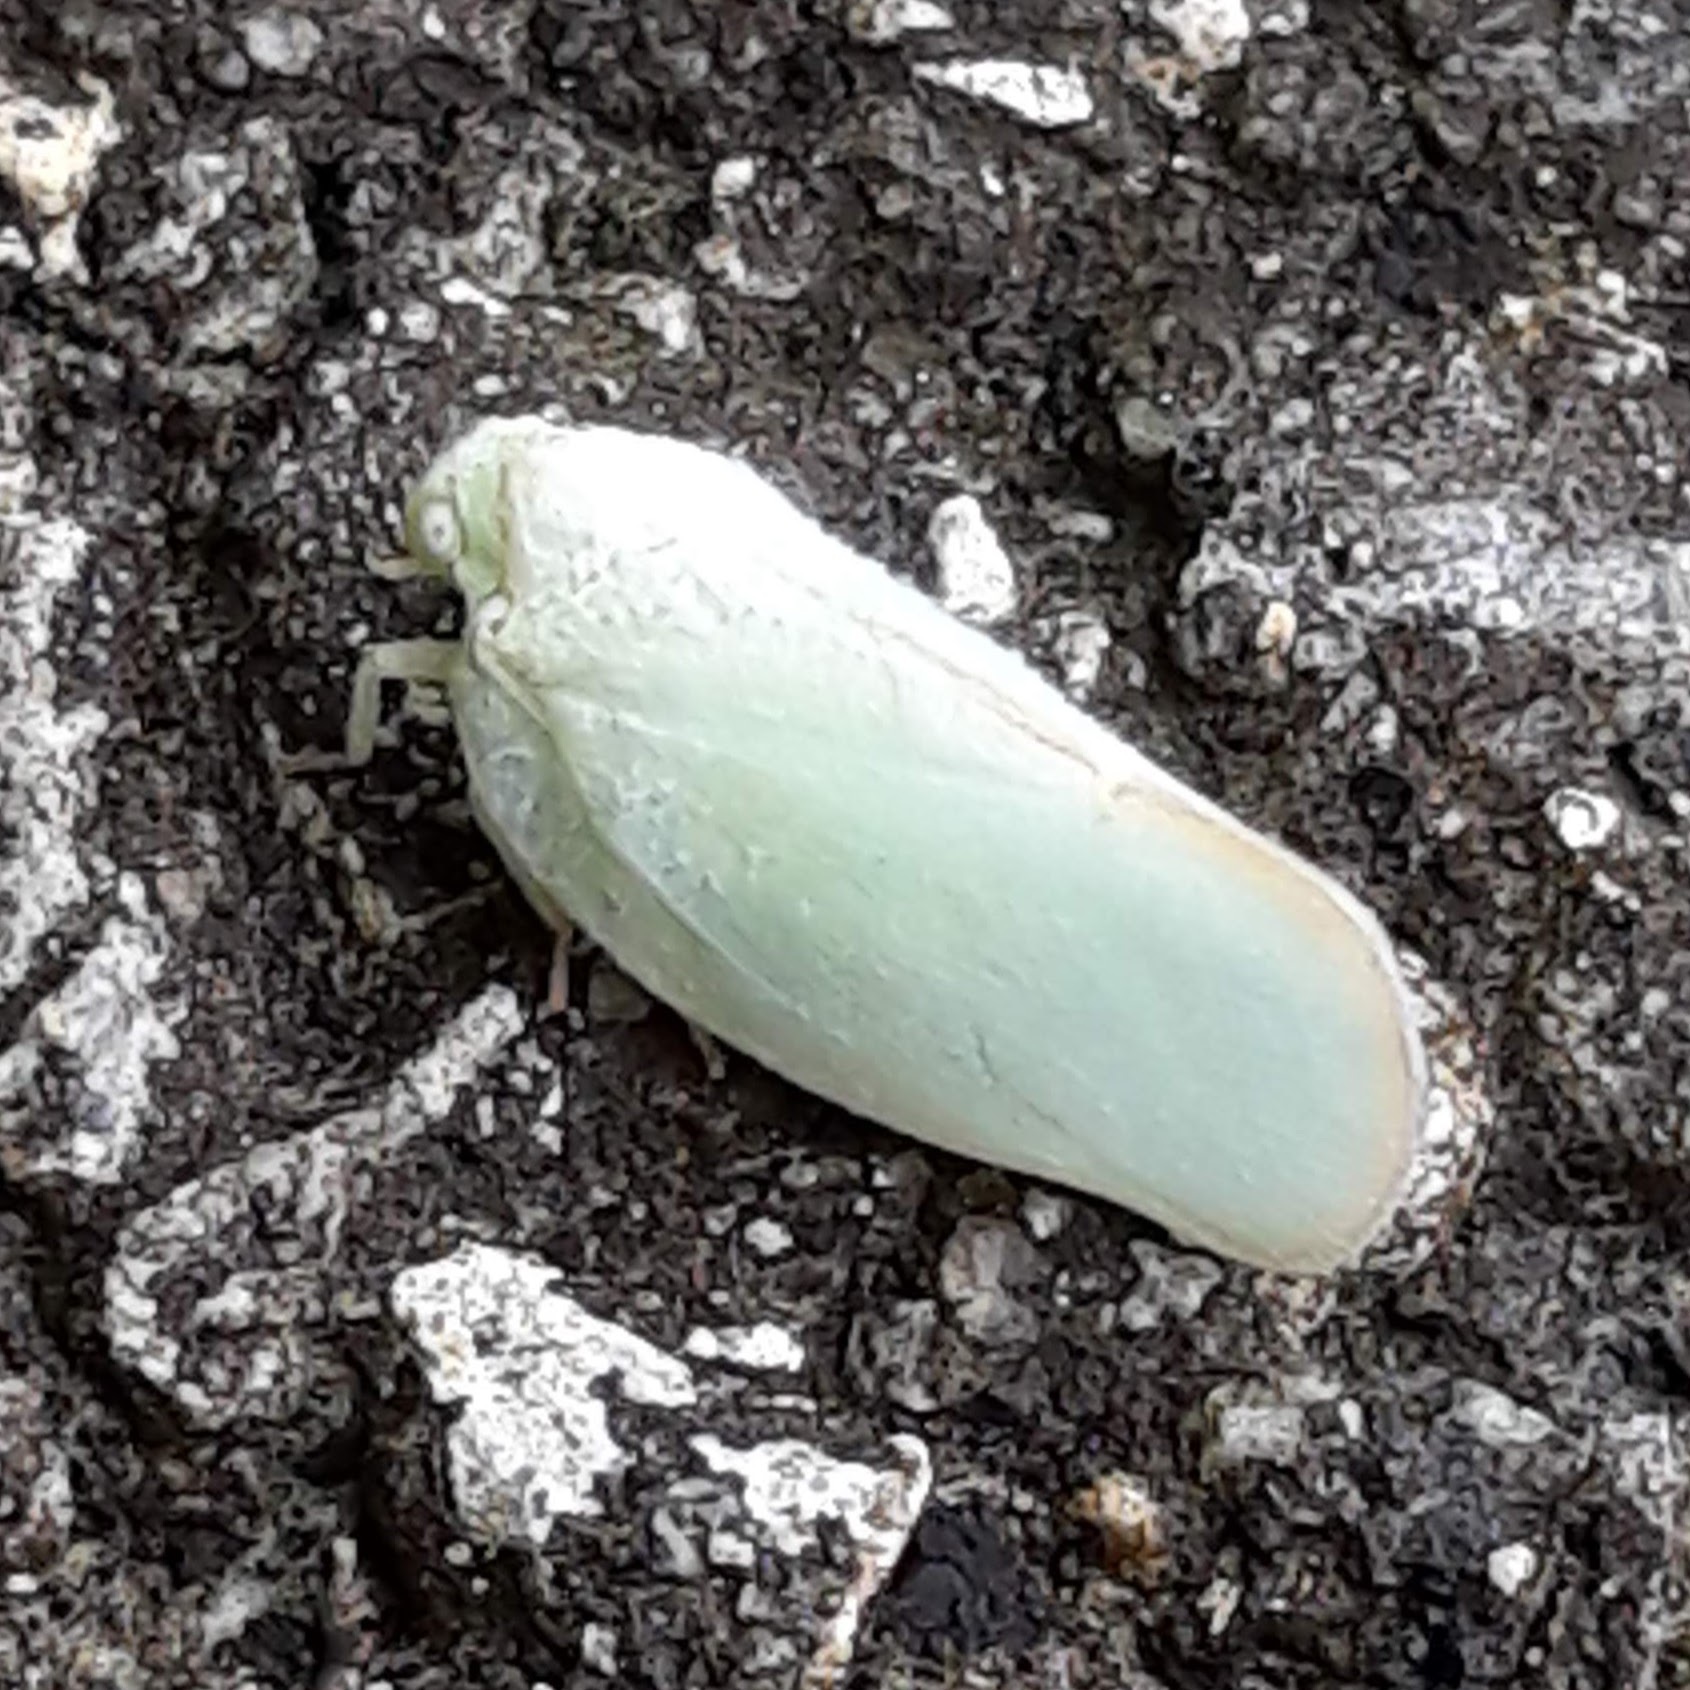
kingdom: Animalia
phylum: Arthropoda
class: Insecta
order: Hemiptera
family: Flatidae
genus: Ormenoides
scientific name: Ormenoides venusta
